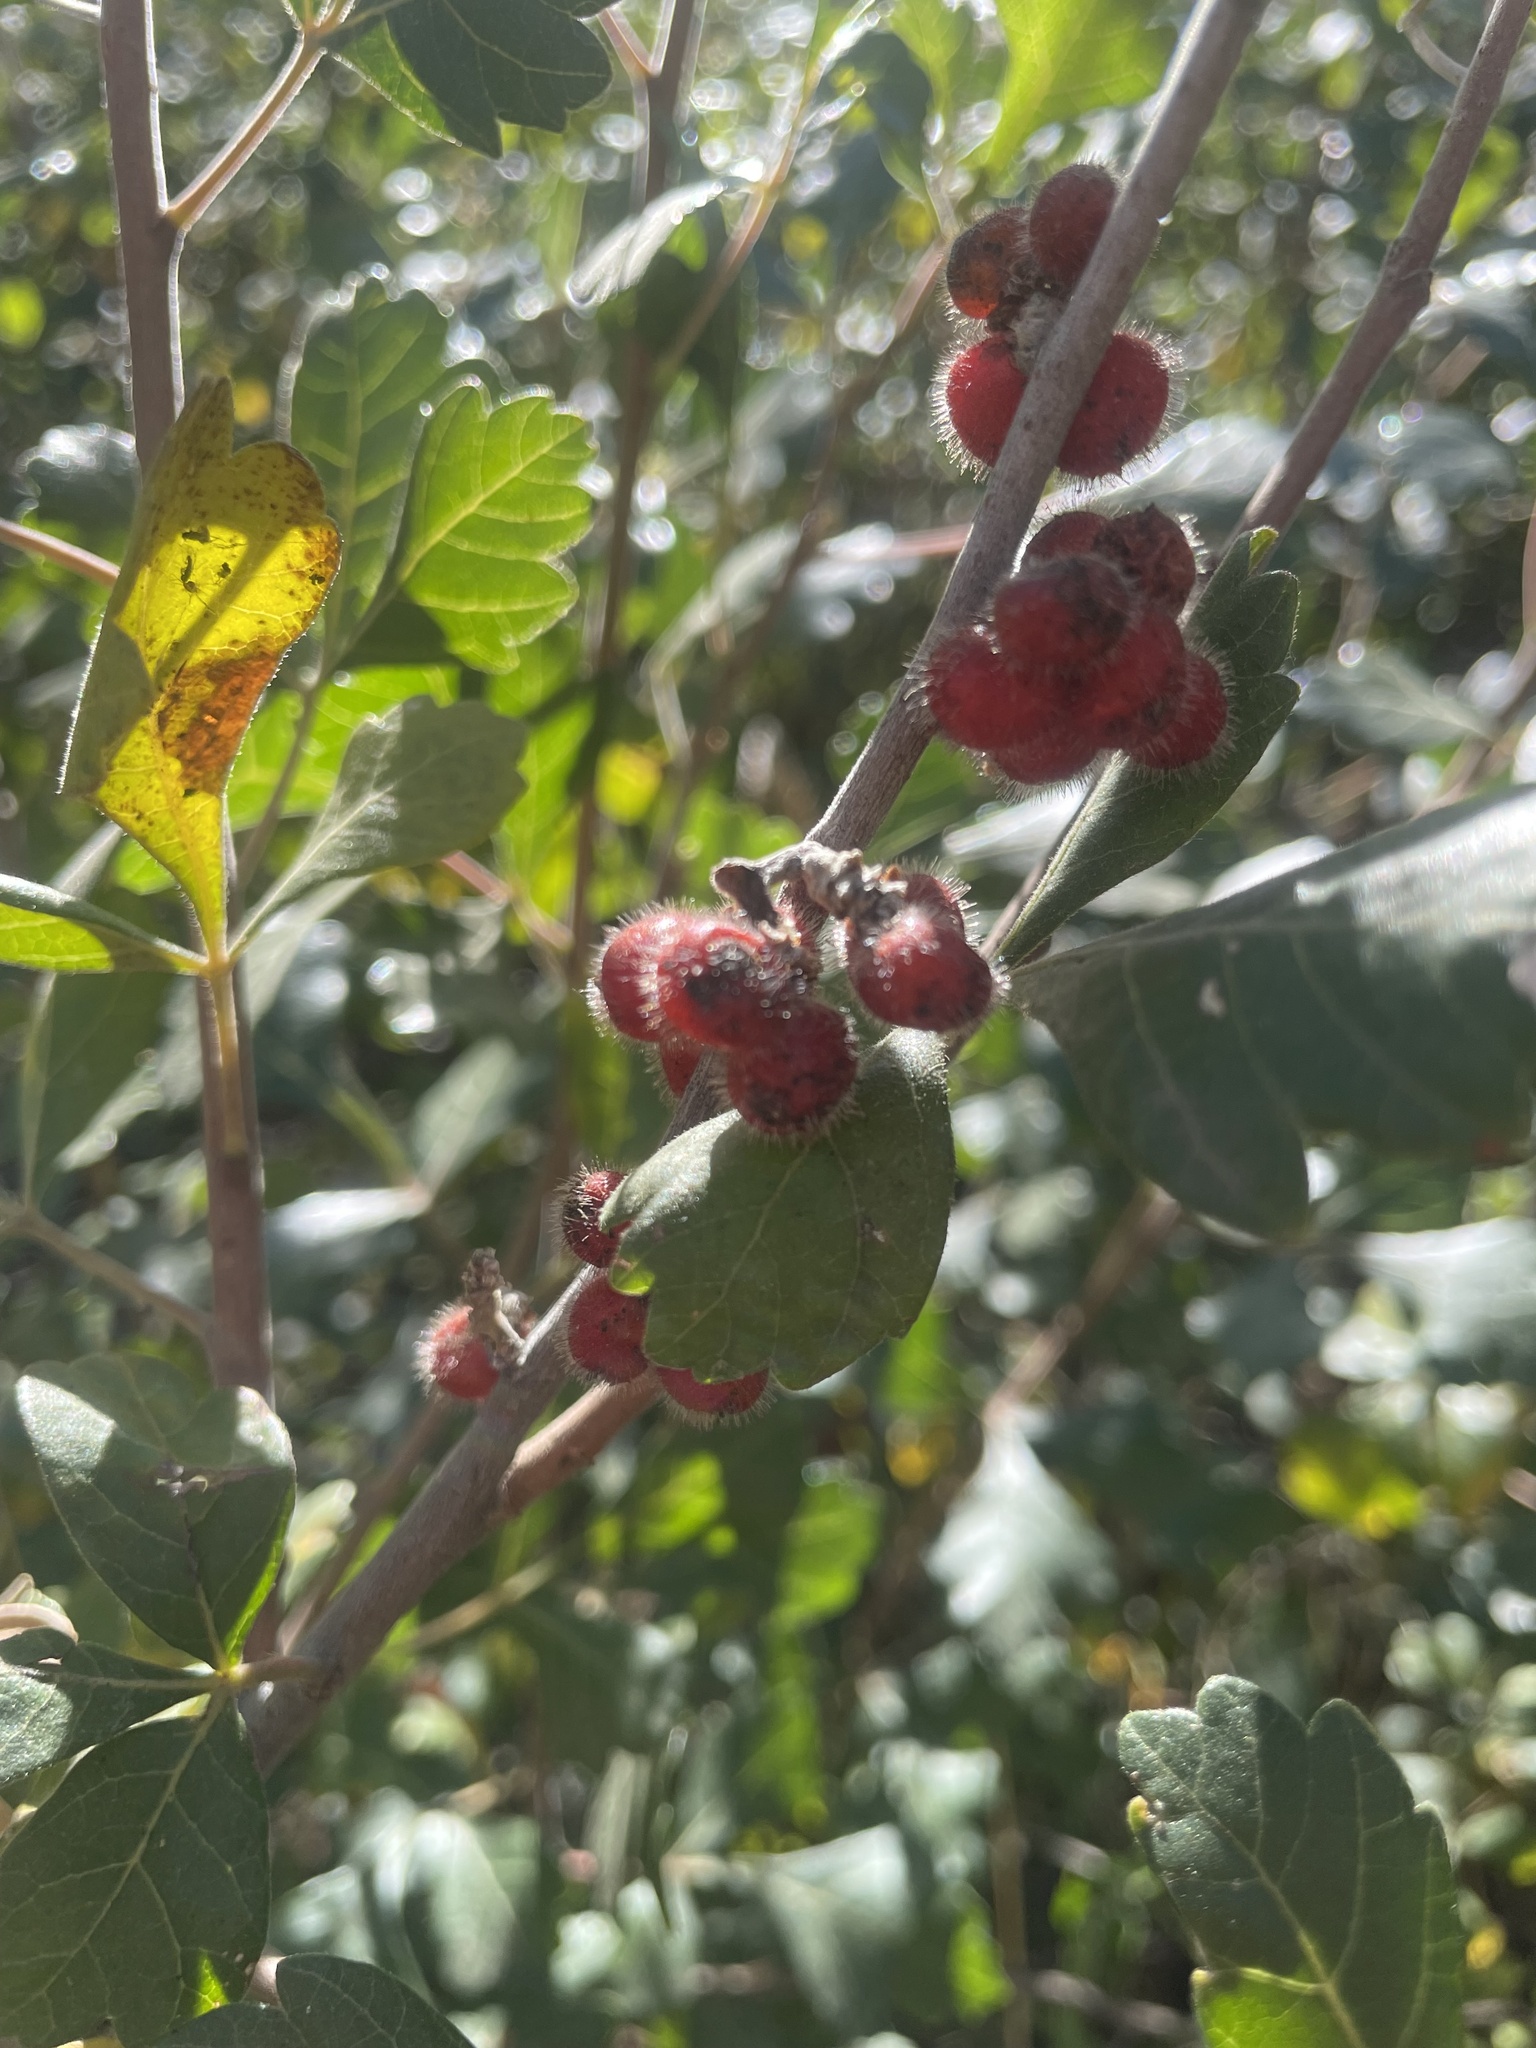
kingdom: Plantae
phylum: Tracheophyta
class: Magnoliopsida
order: Sapindales
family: Anacardiaceae
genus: Rhus
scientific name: Rhus trilobata
